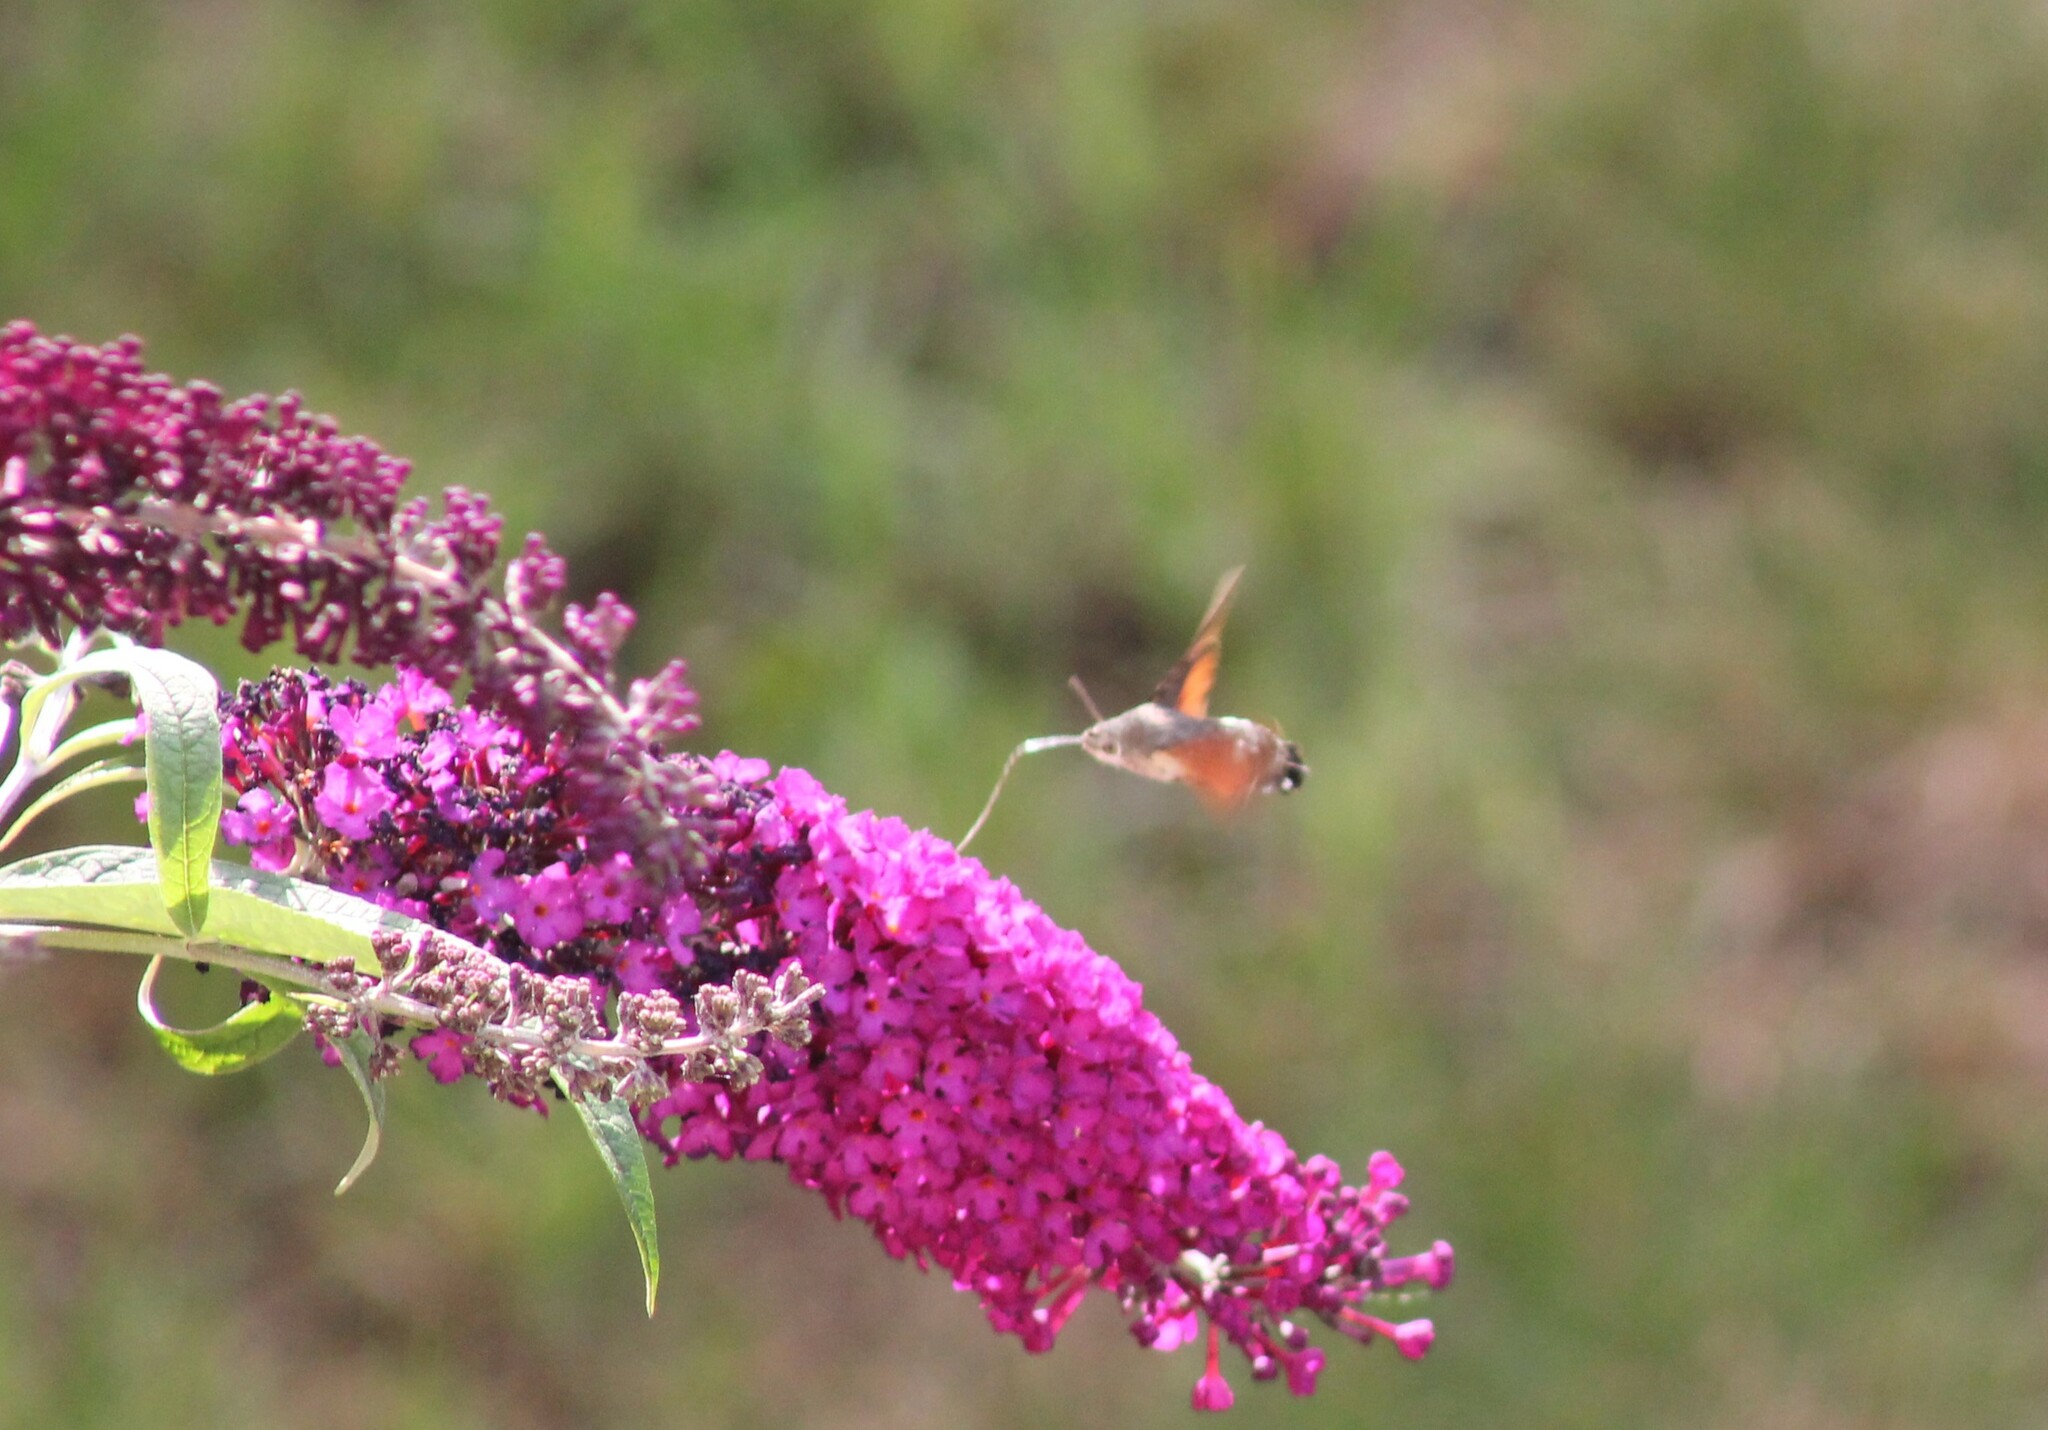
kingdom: Animalia
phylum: Arthropoda
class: Insecta
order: Lepidoptera
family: Sphingidae
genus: Macroglossum
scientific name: Macroglossum stellatarum
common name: Humming-bird hawk-moth
